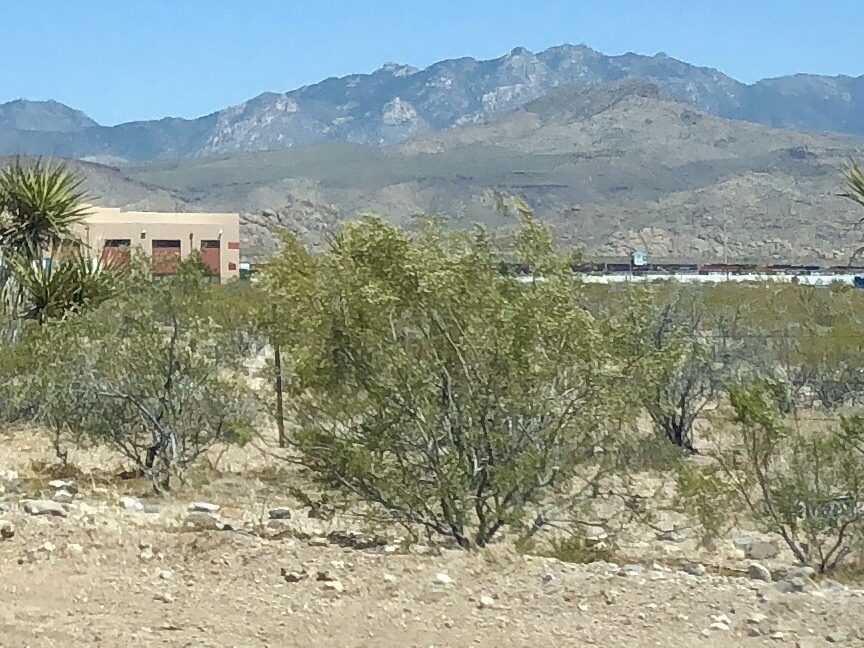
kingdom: Plantae
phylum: Tracheophyta
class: Magnoliopsida
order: Zygophyllales
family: Zygophyllaceae
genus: Larrea
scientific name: Larrea tridentata
